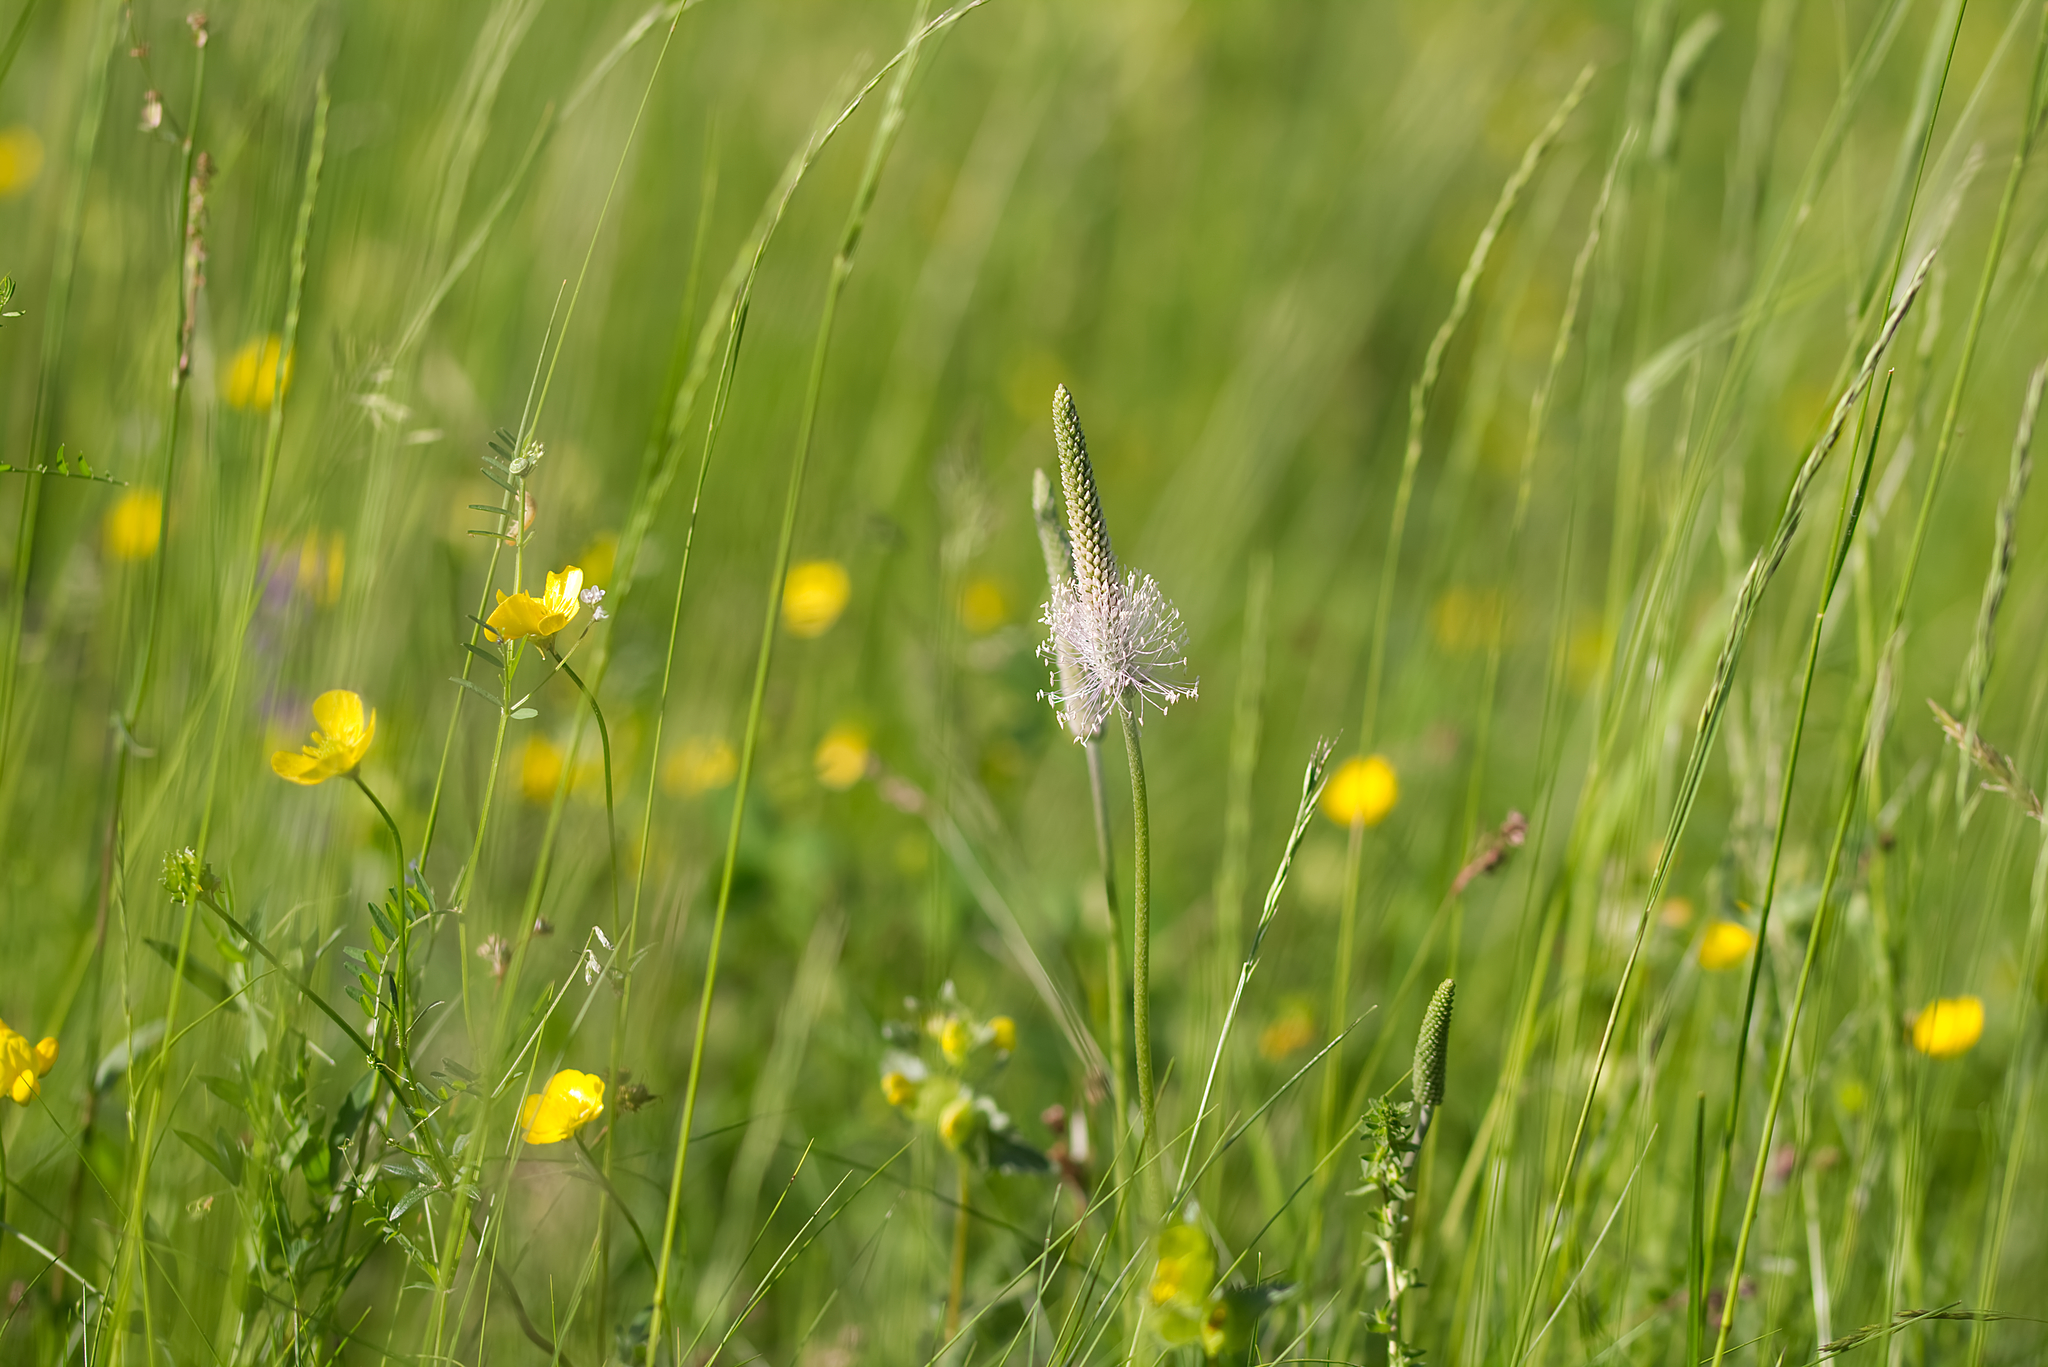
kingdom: Plantae
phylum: Tracheophyta
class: Magnoliopsida
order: Lamiales
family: Plantaginaceae
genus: Plantago
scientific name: Plantago media
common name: Hoary plantain
